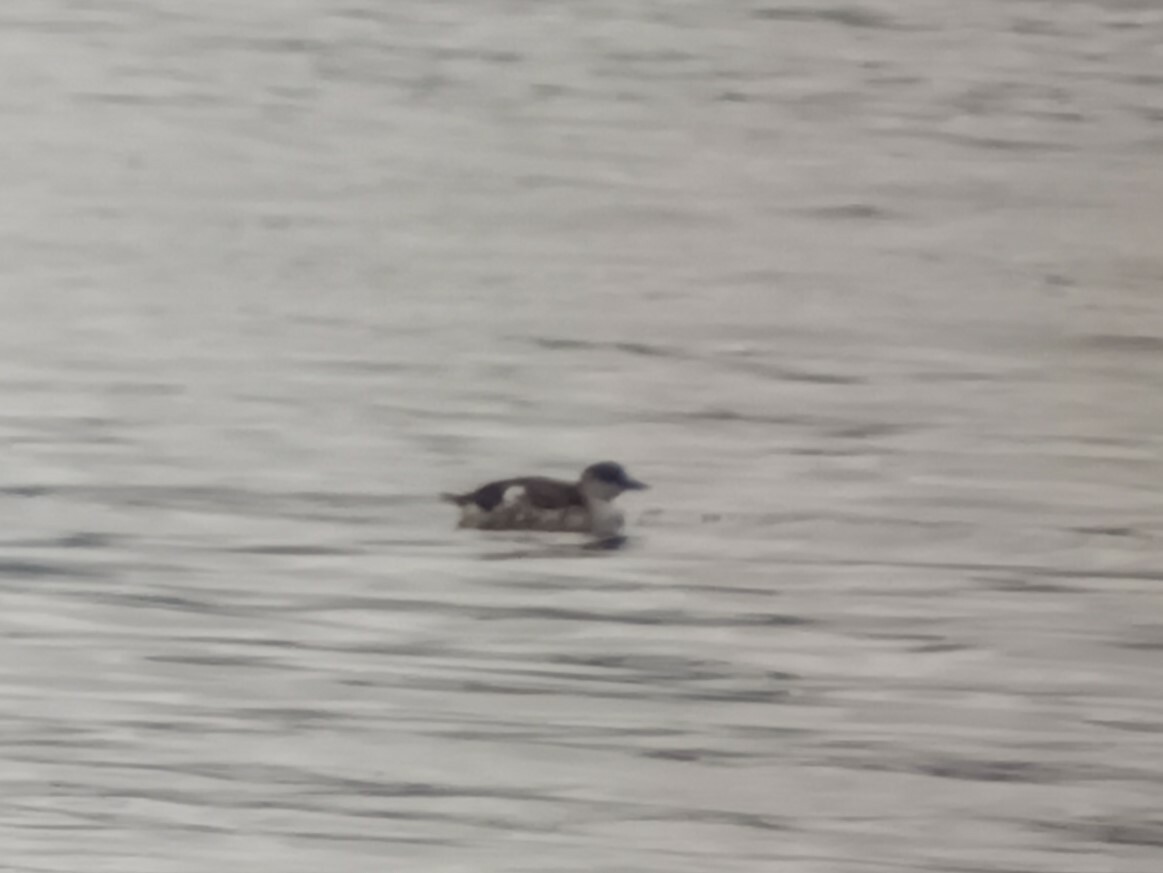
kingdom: Animalia
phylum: Chordata
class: Aves
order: Charadriiformes
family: Alcidae
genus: Cepphus
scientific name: Cepphus grylle
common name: Black guillemot
